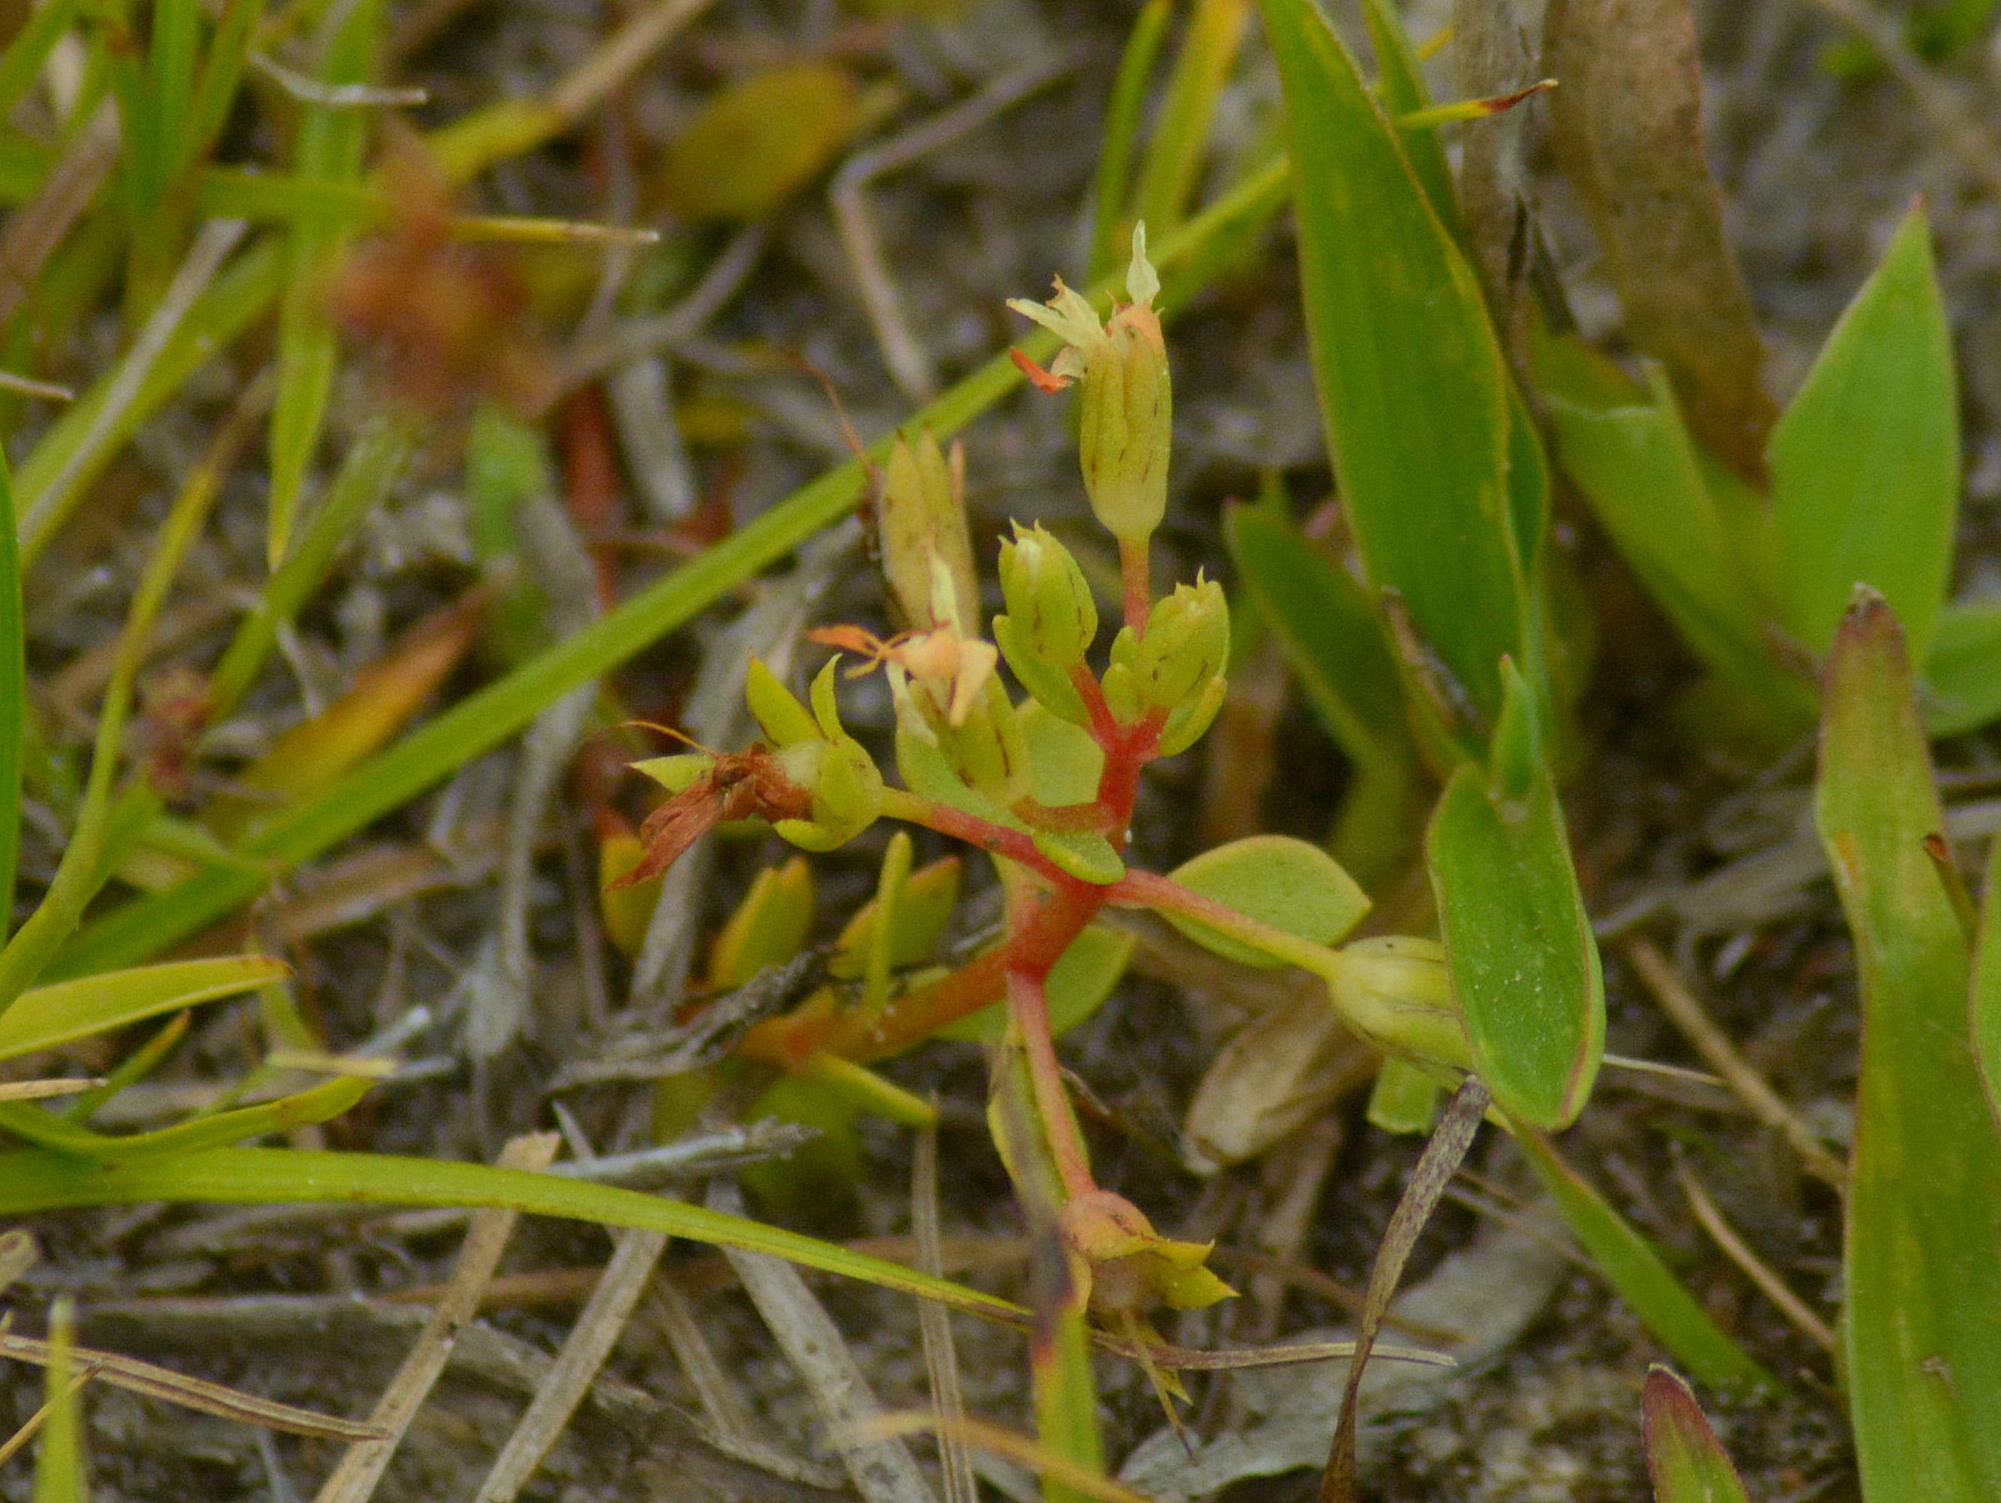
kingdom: Plantae
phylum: Tracheophyta
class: Magnoliopsida
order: Ericales
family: Primulaceae
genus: Lysimachia
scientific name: Lysimachia filiformis
